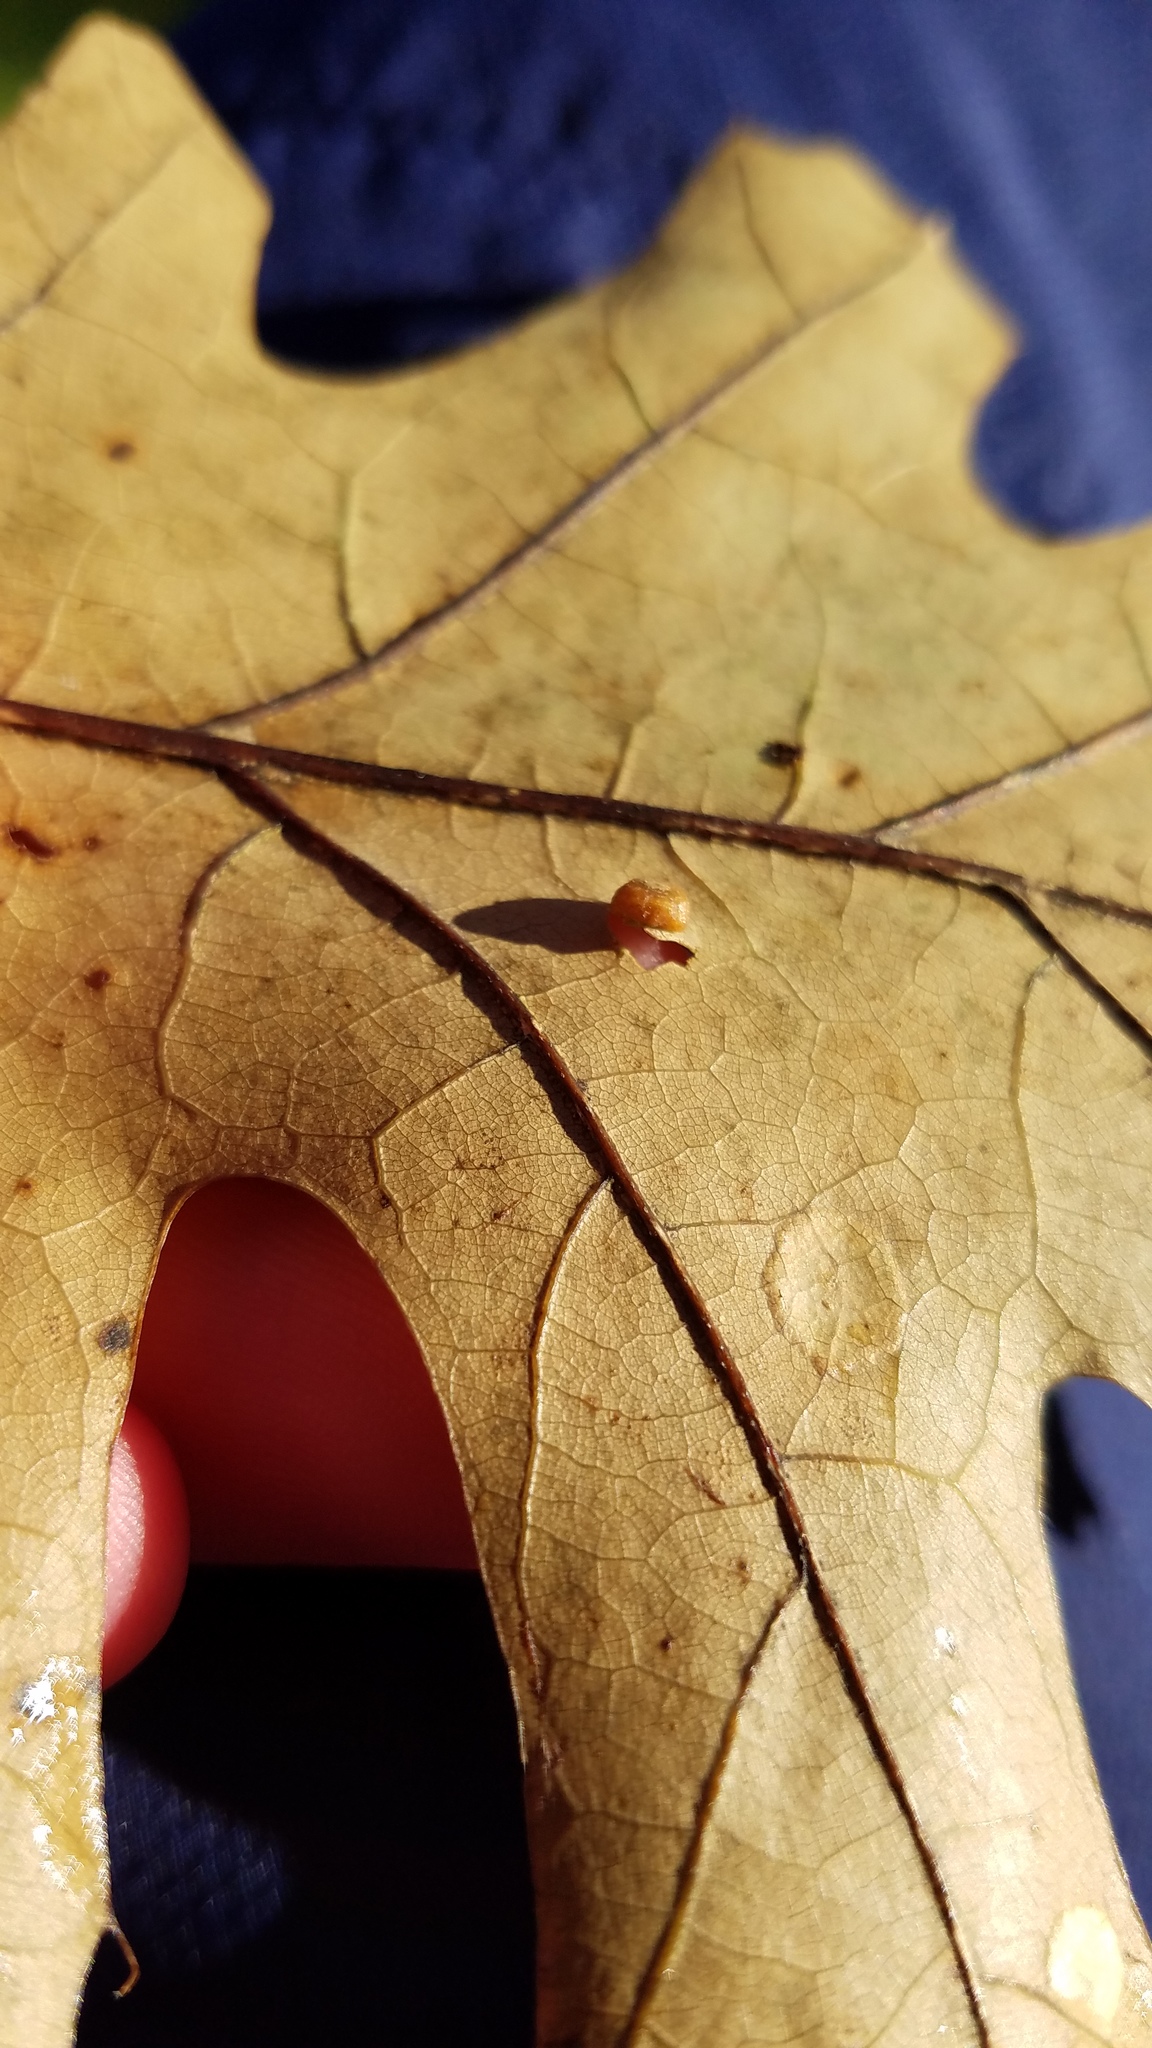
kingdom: Animalia
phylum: Arthropoda
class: Insecta
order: Diptera
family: Cecidomyiidae
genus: Polystepha
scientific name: Polystepha globosa
